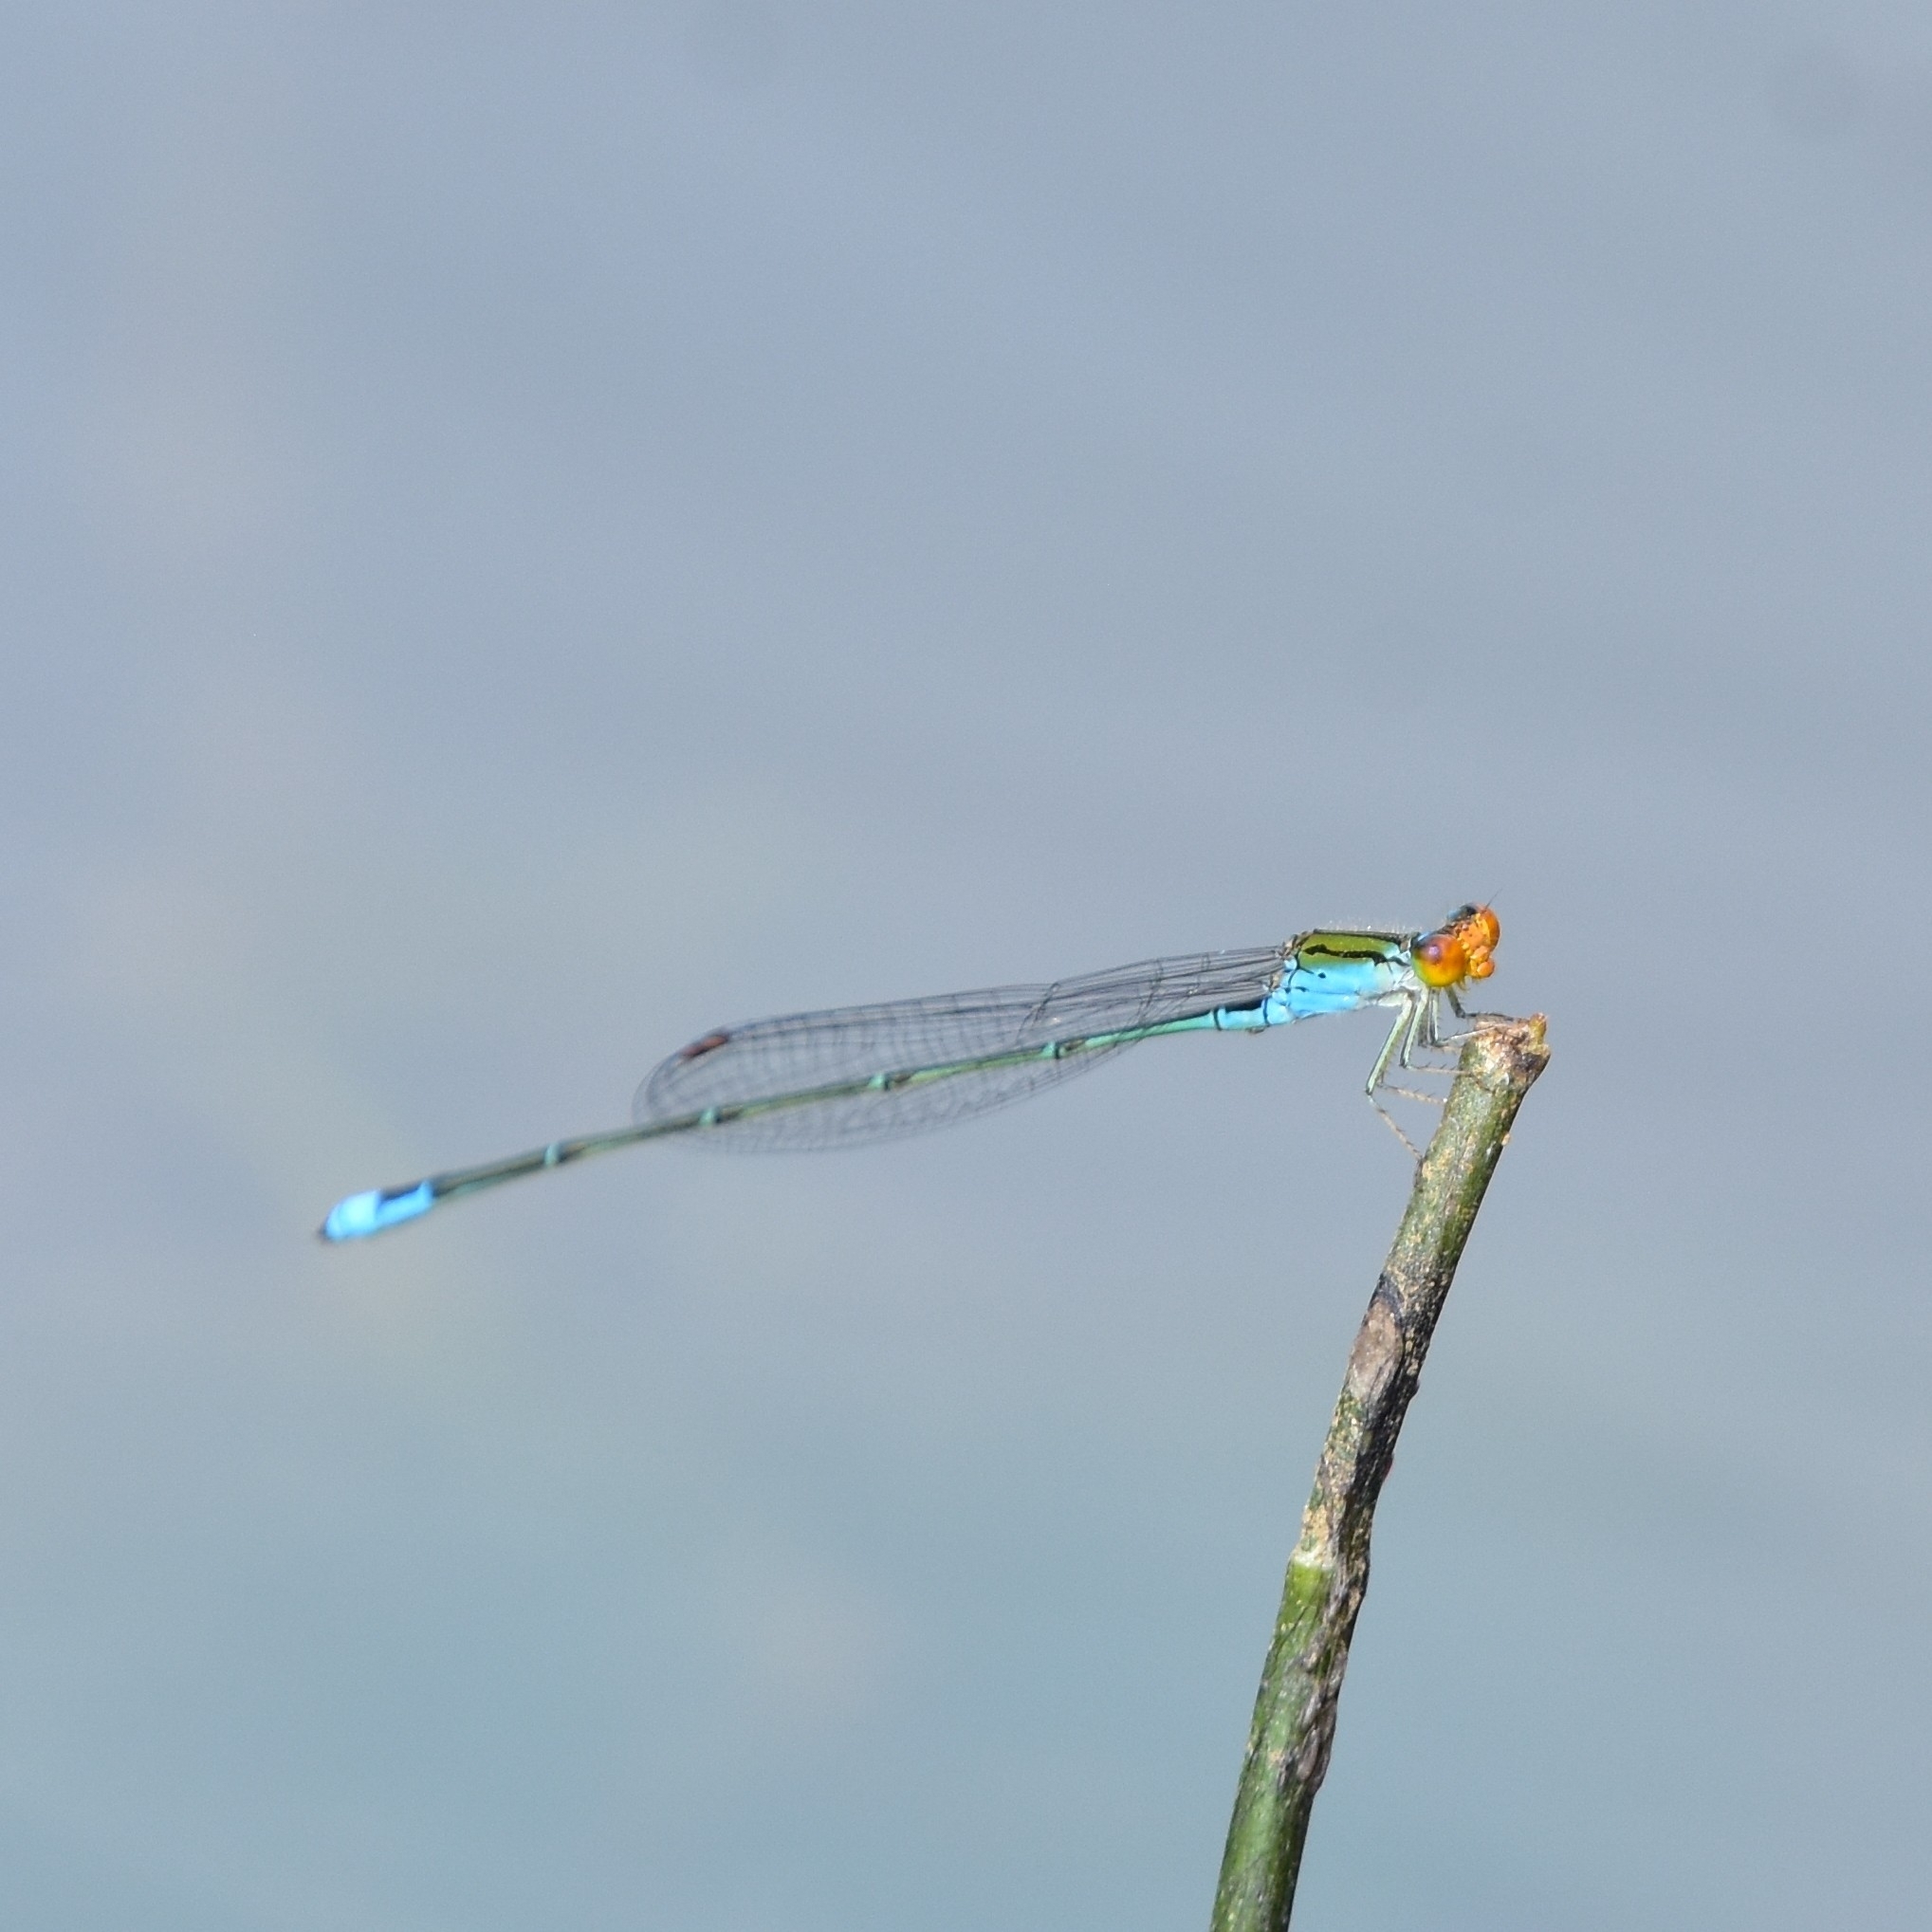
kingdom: Animalia
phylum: Arthropoda
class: Insecta
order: Odonata
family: Coenagrionidae
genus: Pseudagrion
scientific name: Pseudagrion rubriceps
